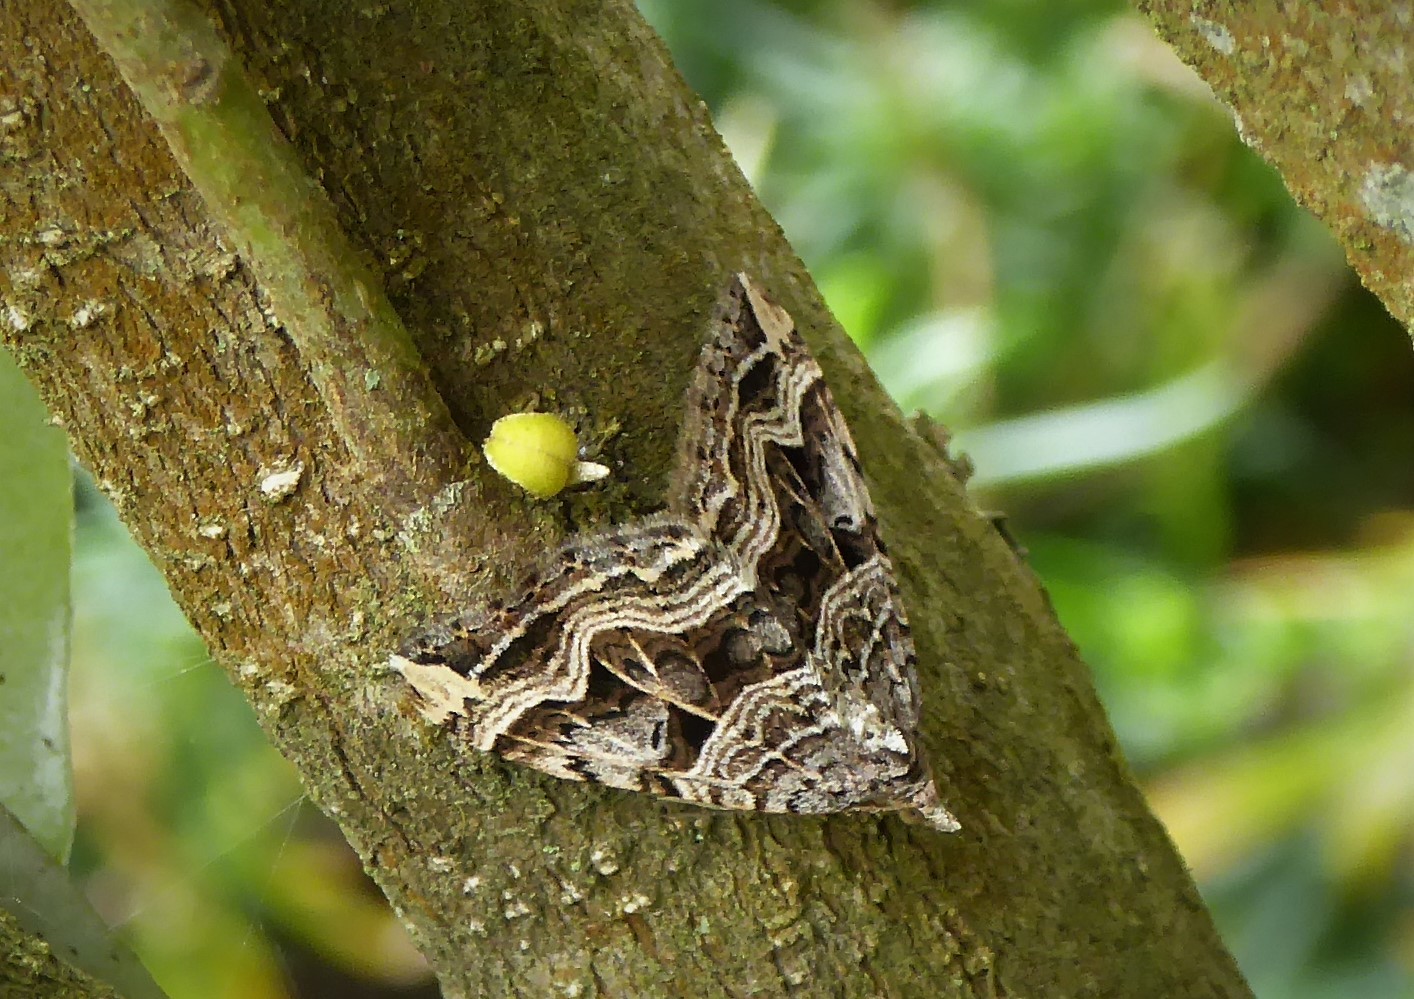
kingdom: Animalia
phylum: Arthropoda
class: Insecta
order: Lepidoptera
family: Geometridae
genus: Xanthorhoe
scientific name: Xanthorhoe semifissata
